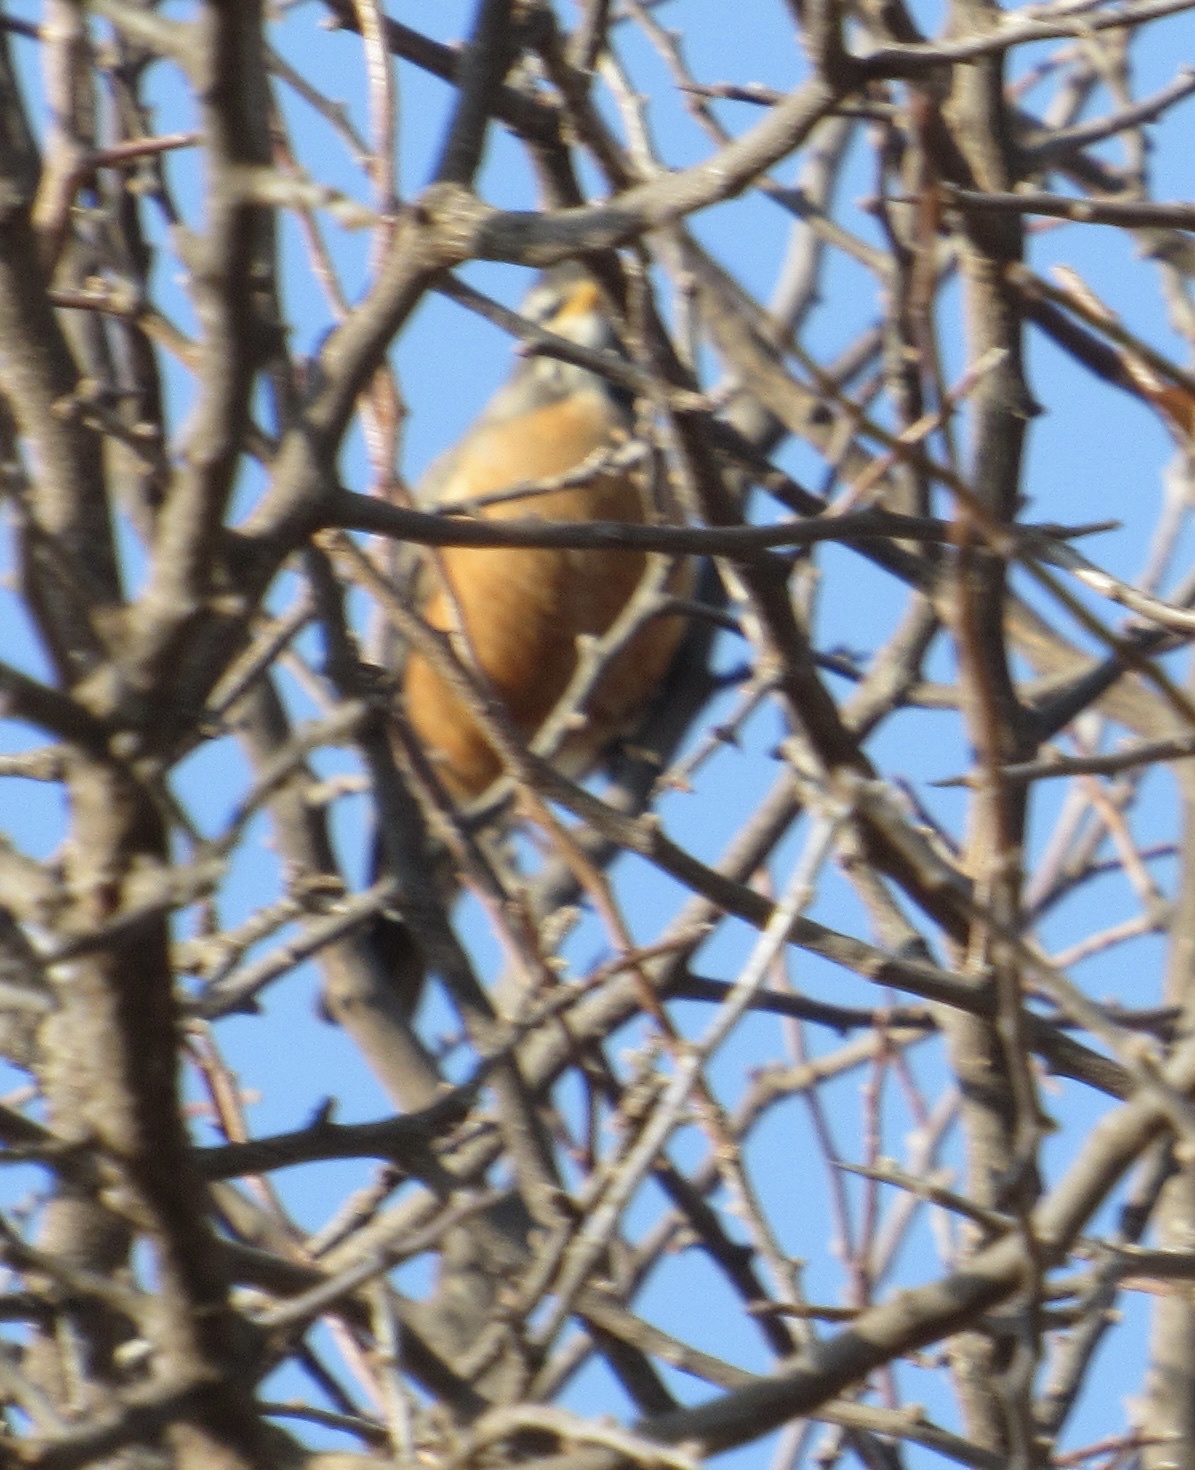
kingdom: Animalia
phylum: Chordata
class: Aves
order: Passeriformes
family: Turdidae
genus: Turdus
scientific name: Turdus migratorius
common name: American robin
